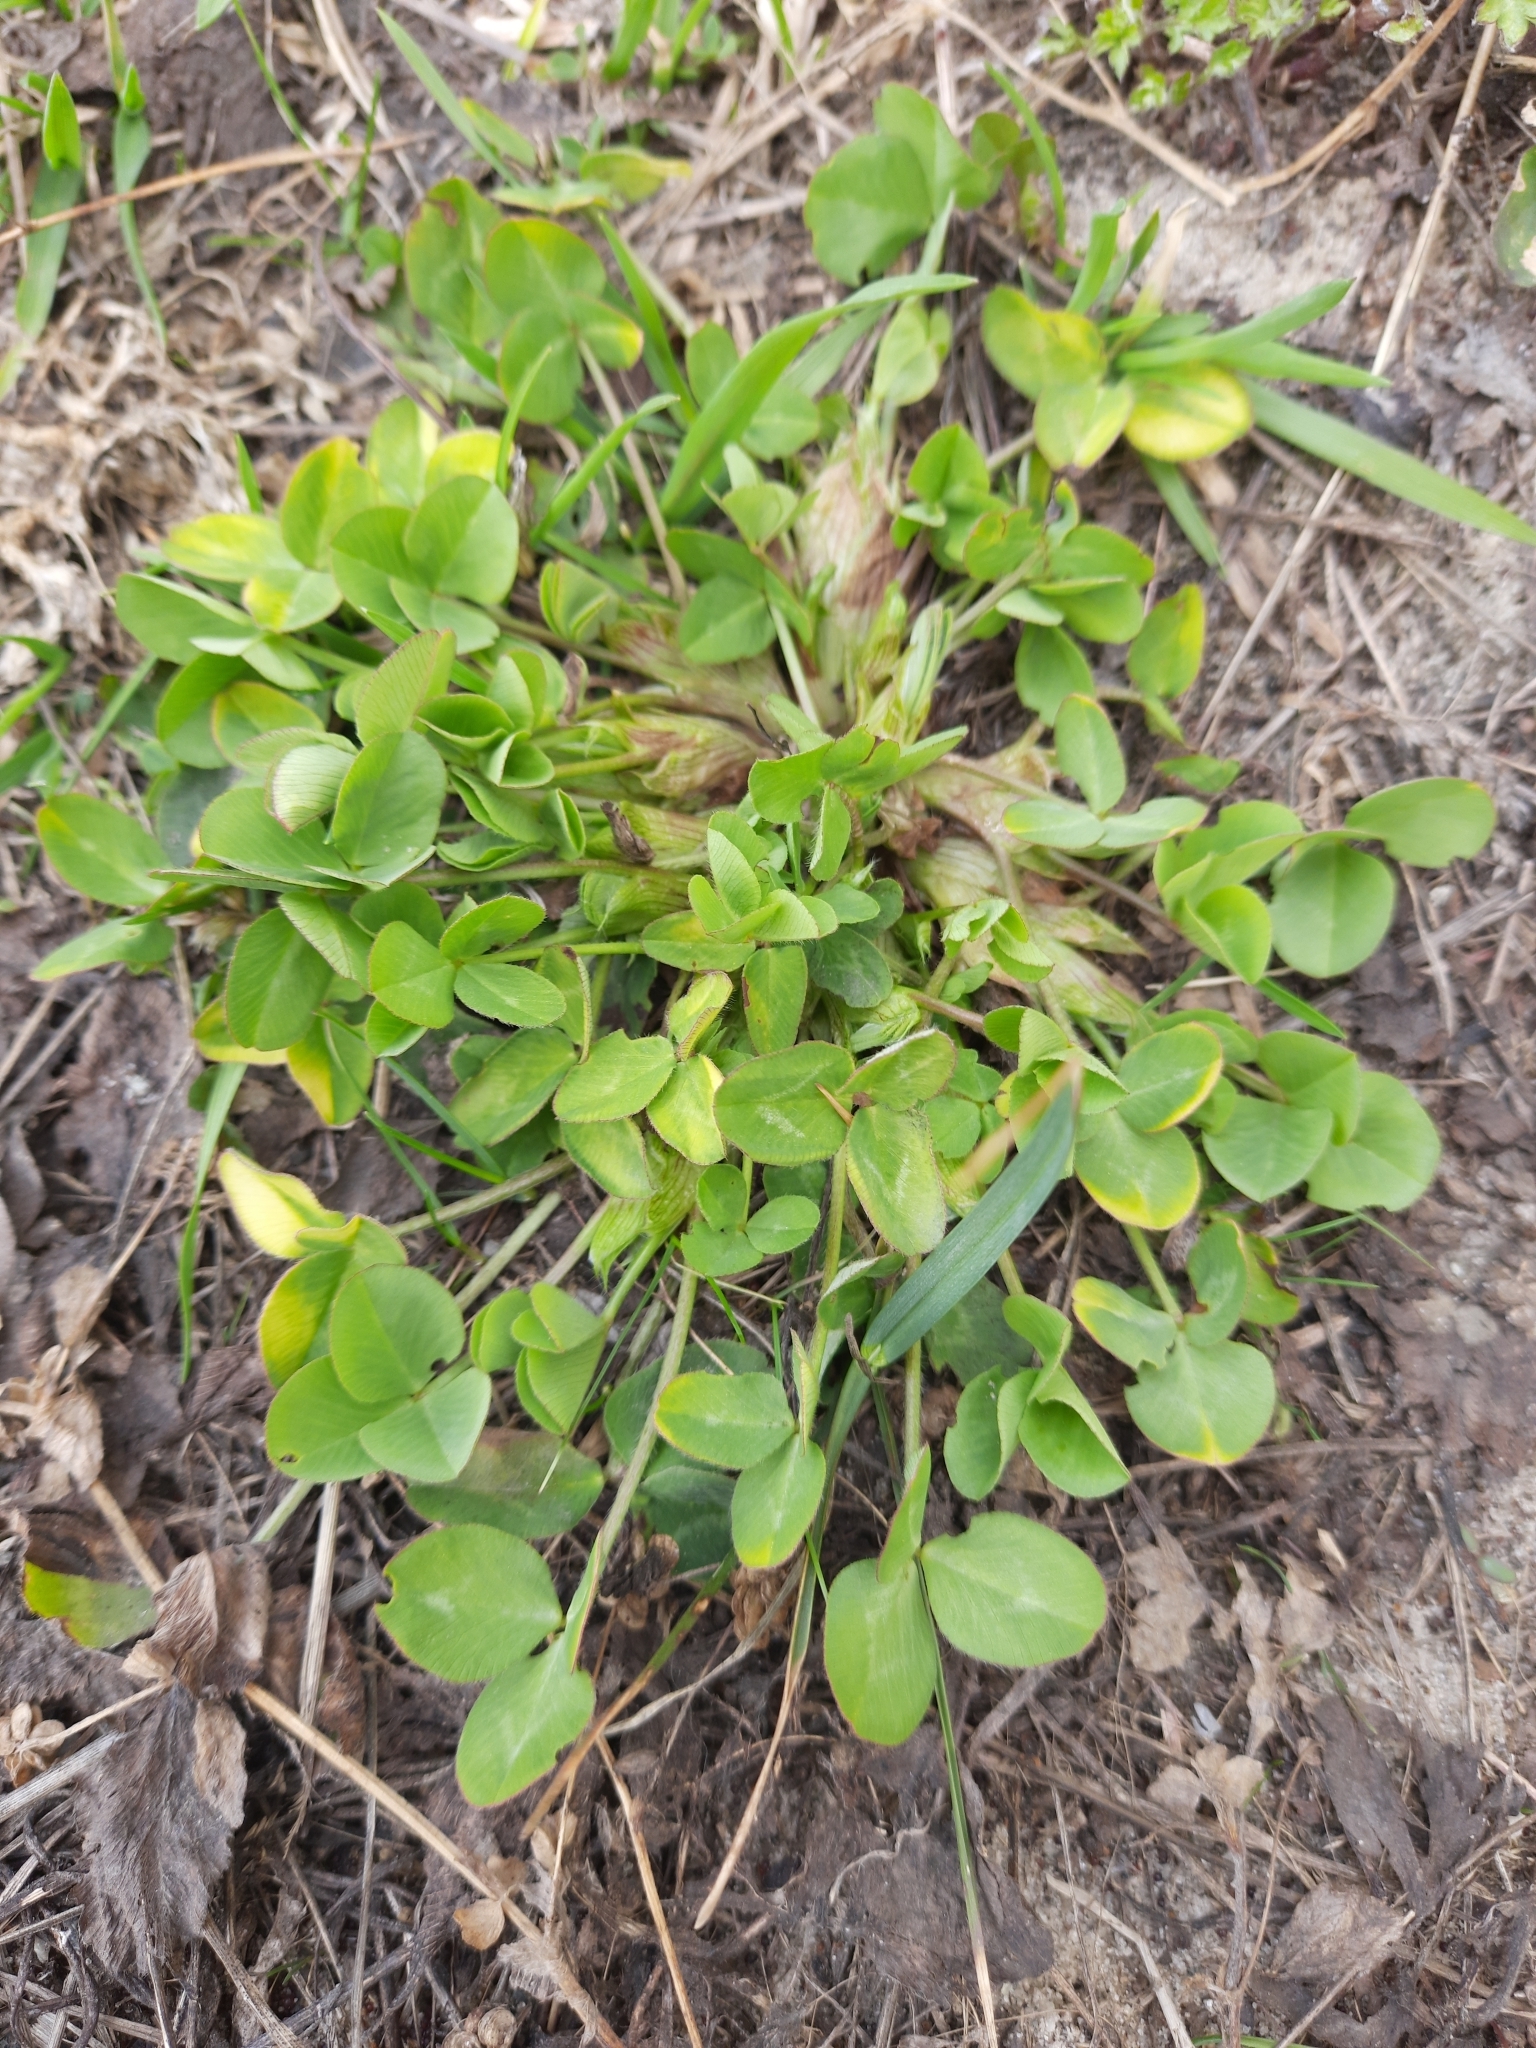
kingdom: Plantae
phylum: Tracheophyta
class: Magnoliopsida
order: Fabales
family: Fabaceae
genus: Trifolium
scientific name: Trifolium pratense
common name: Red clover
